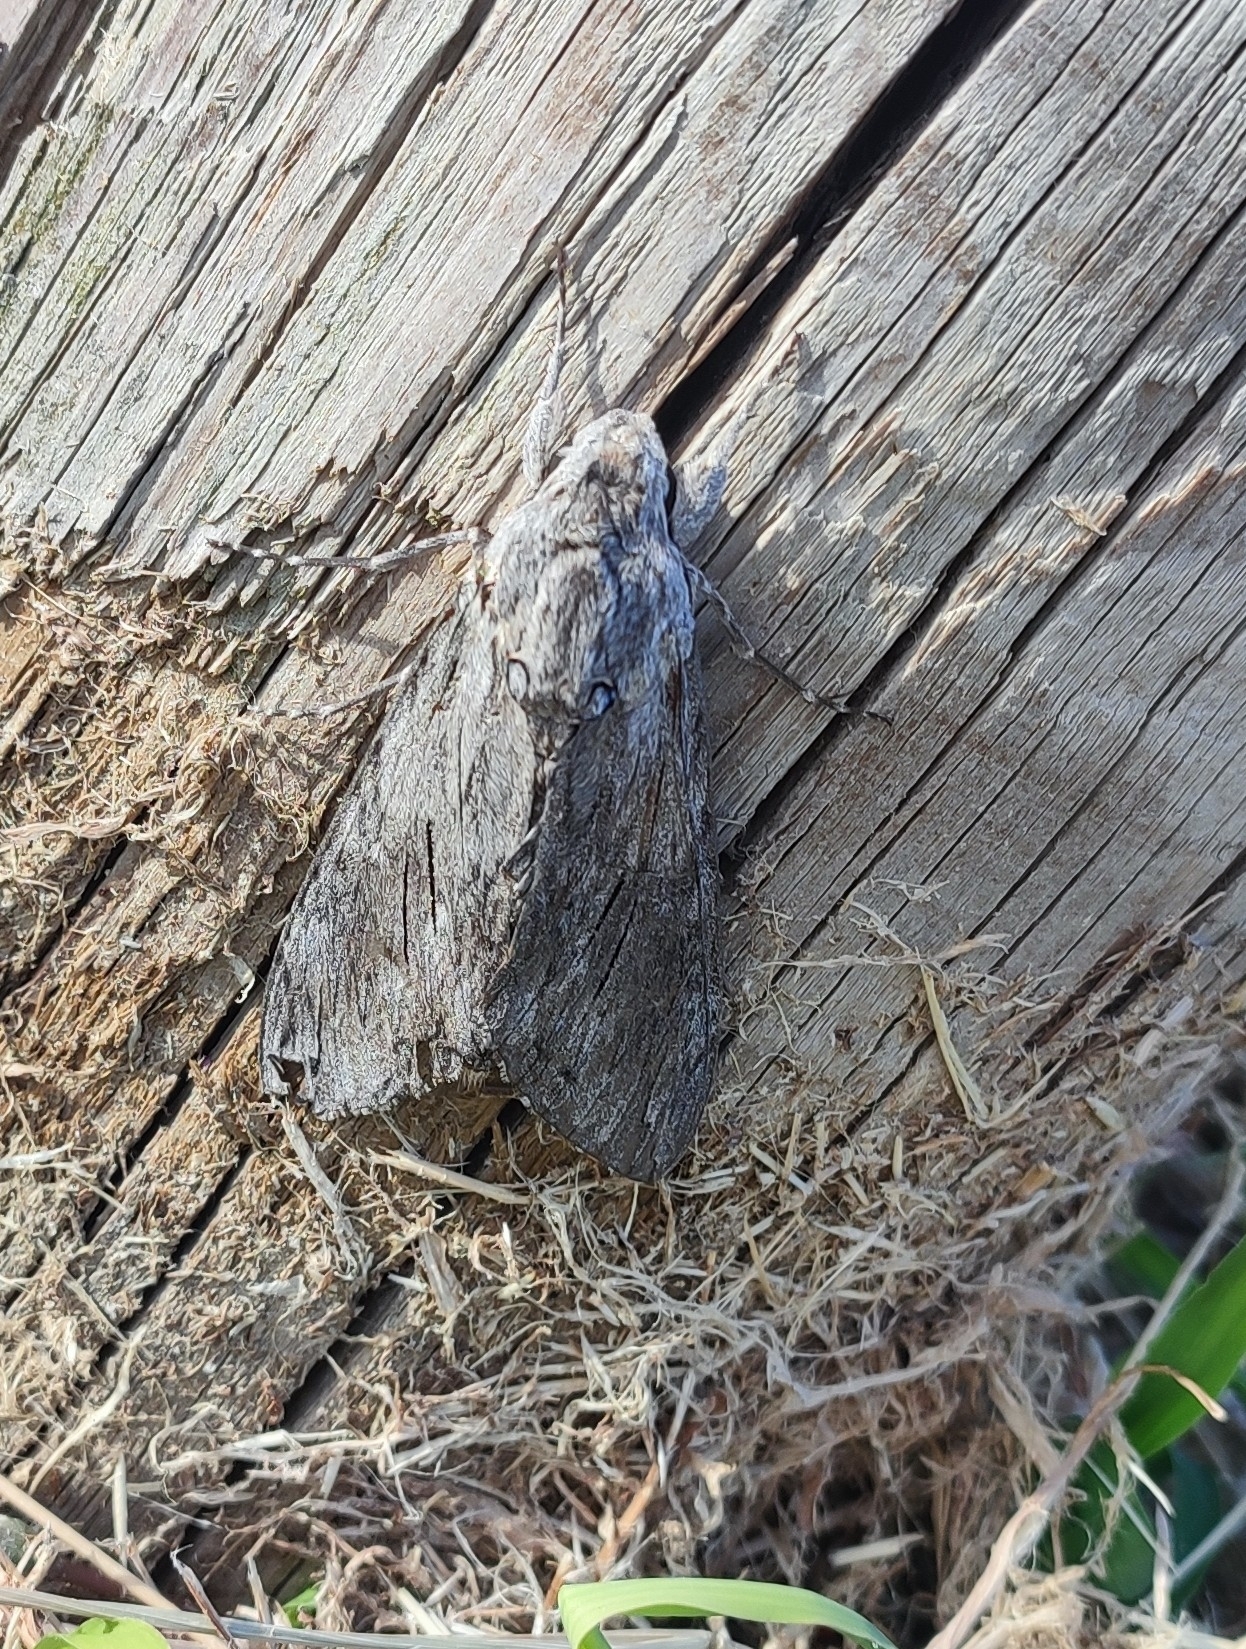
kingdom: Animalia
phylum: Arthropoda
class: Insecta
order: Lepidoptera
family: Sphingidae
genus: Agrius
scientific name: Agrius convolvuli
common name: Convolvulus hawkmoth
